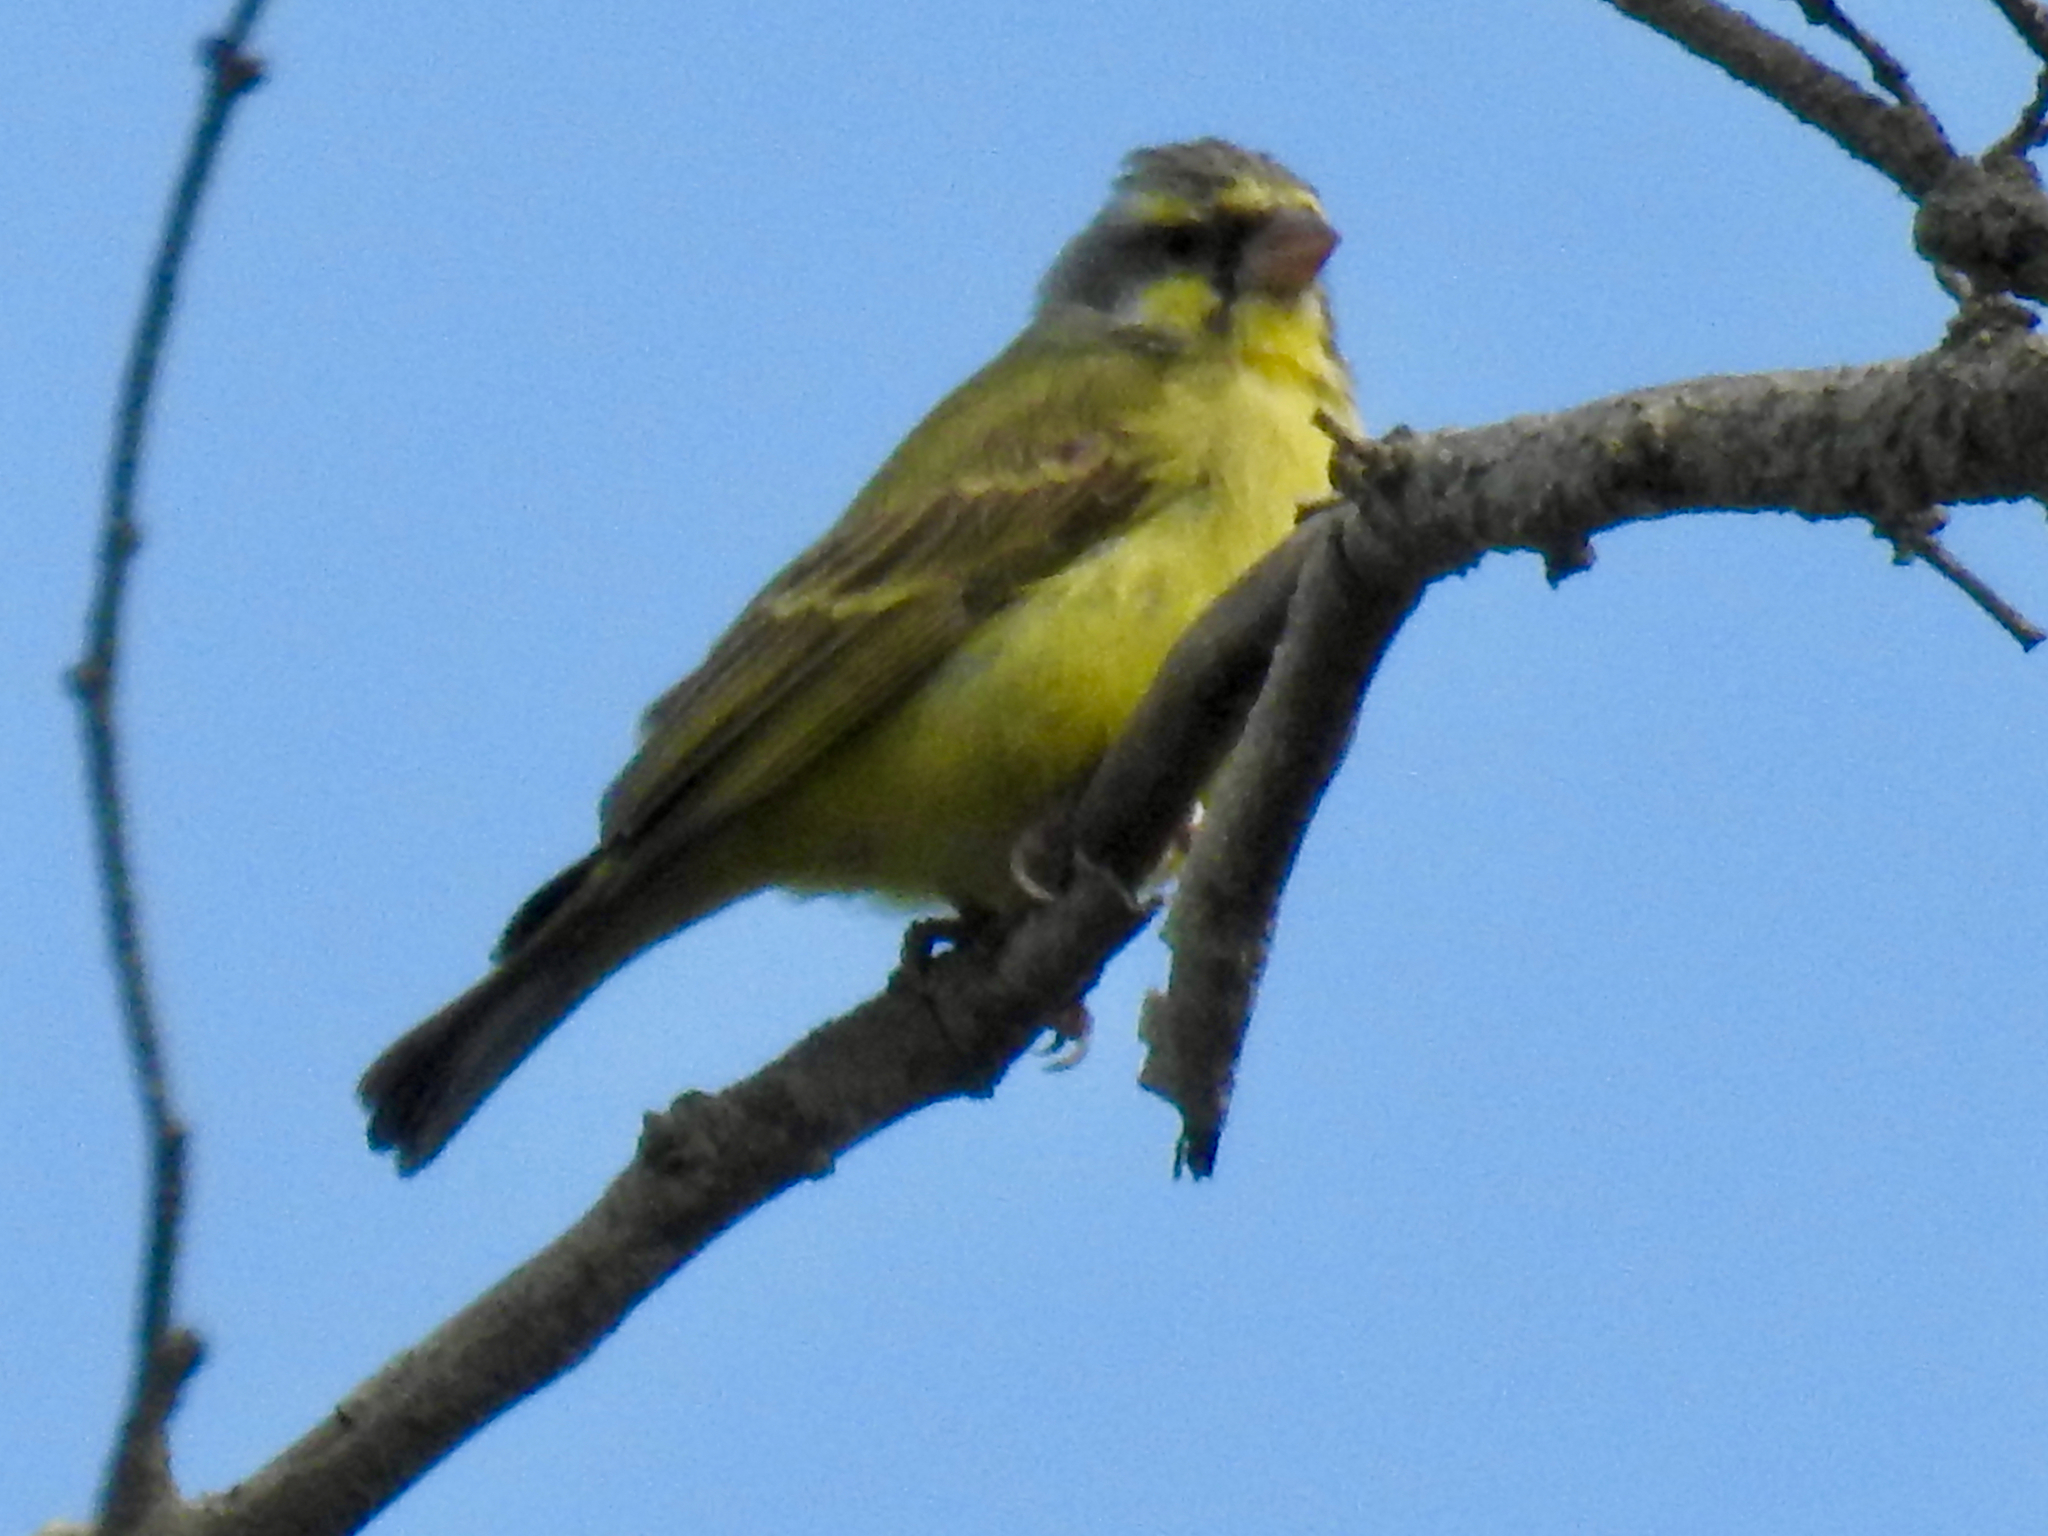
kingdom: Animalia
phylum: Chordata
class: Aves
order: Passeriformes
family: Fringillidae
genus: Crithagra
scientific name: Crithagra mozambica
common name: Yellow-fronted canary
